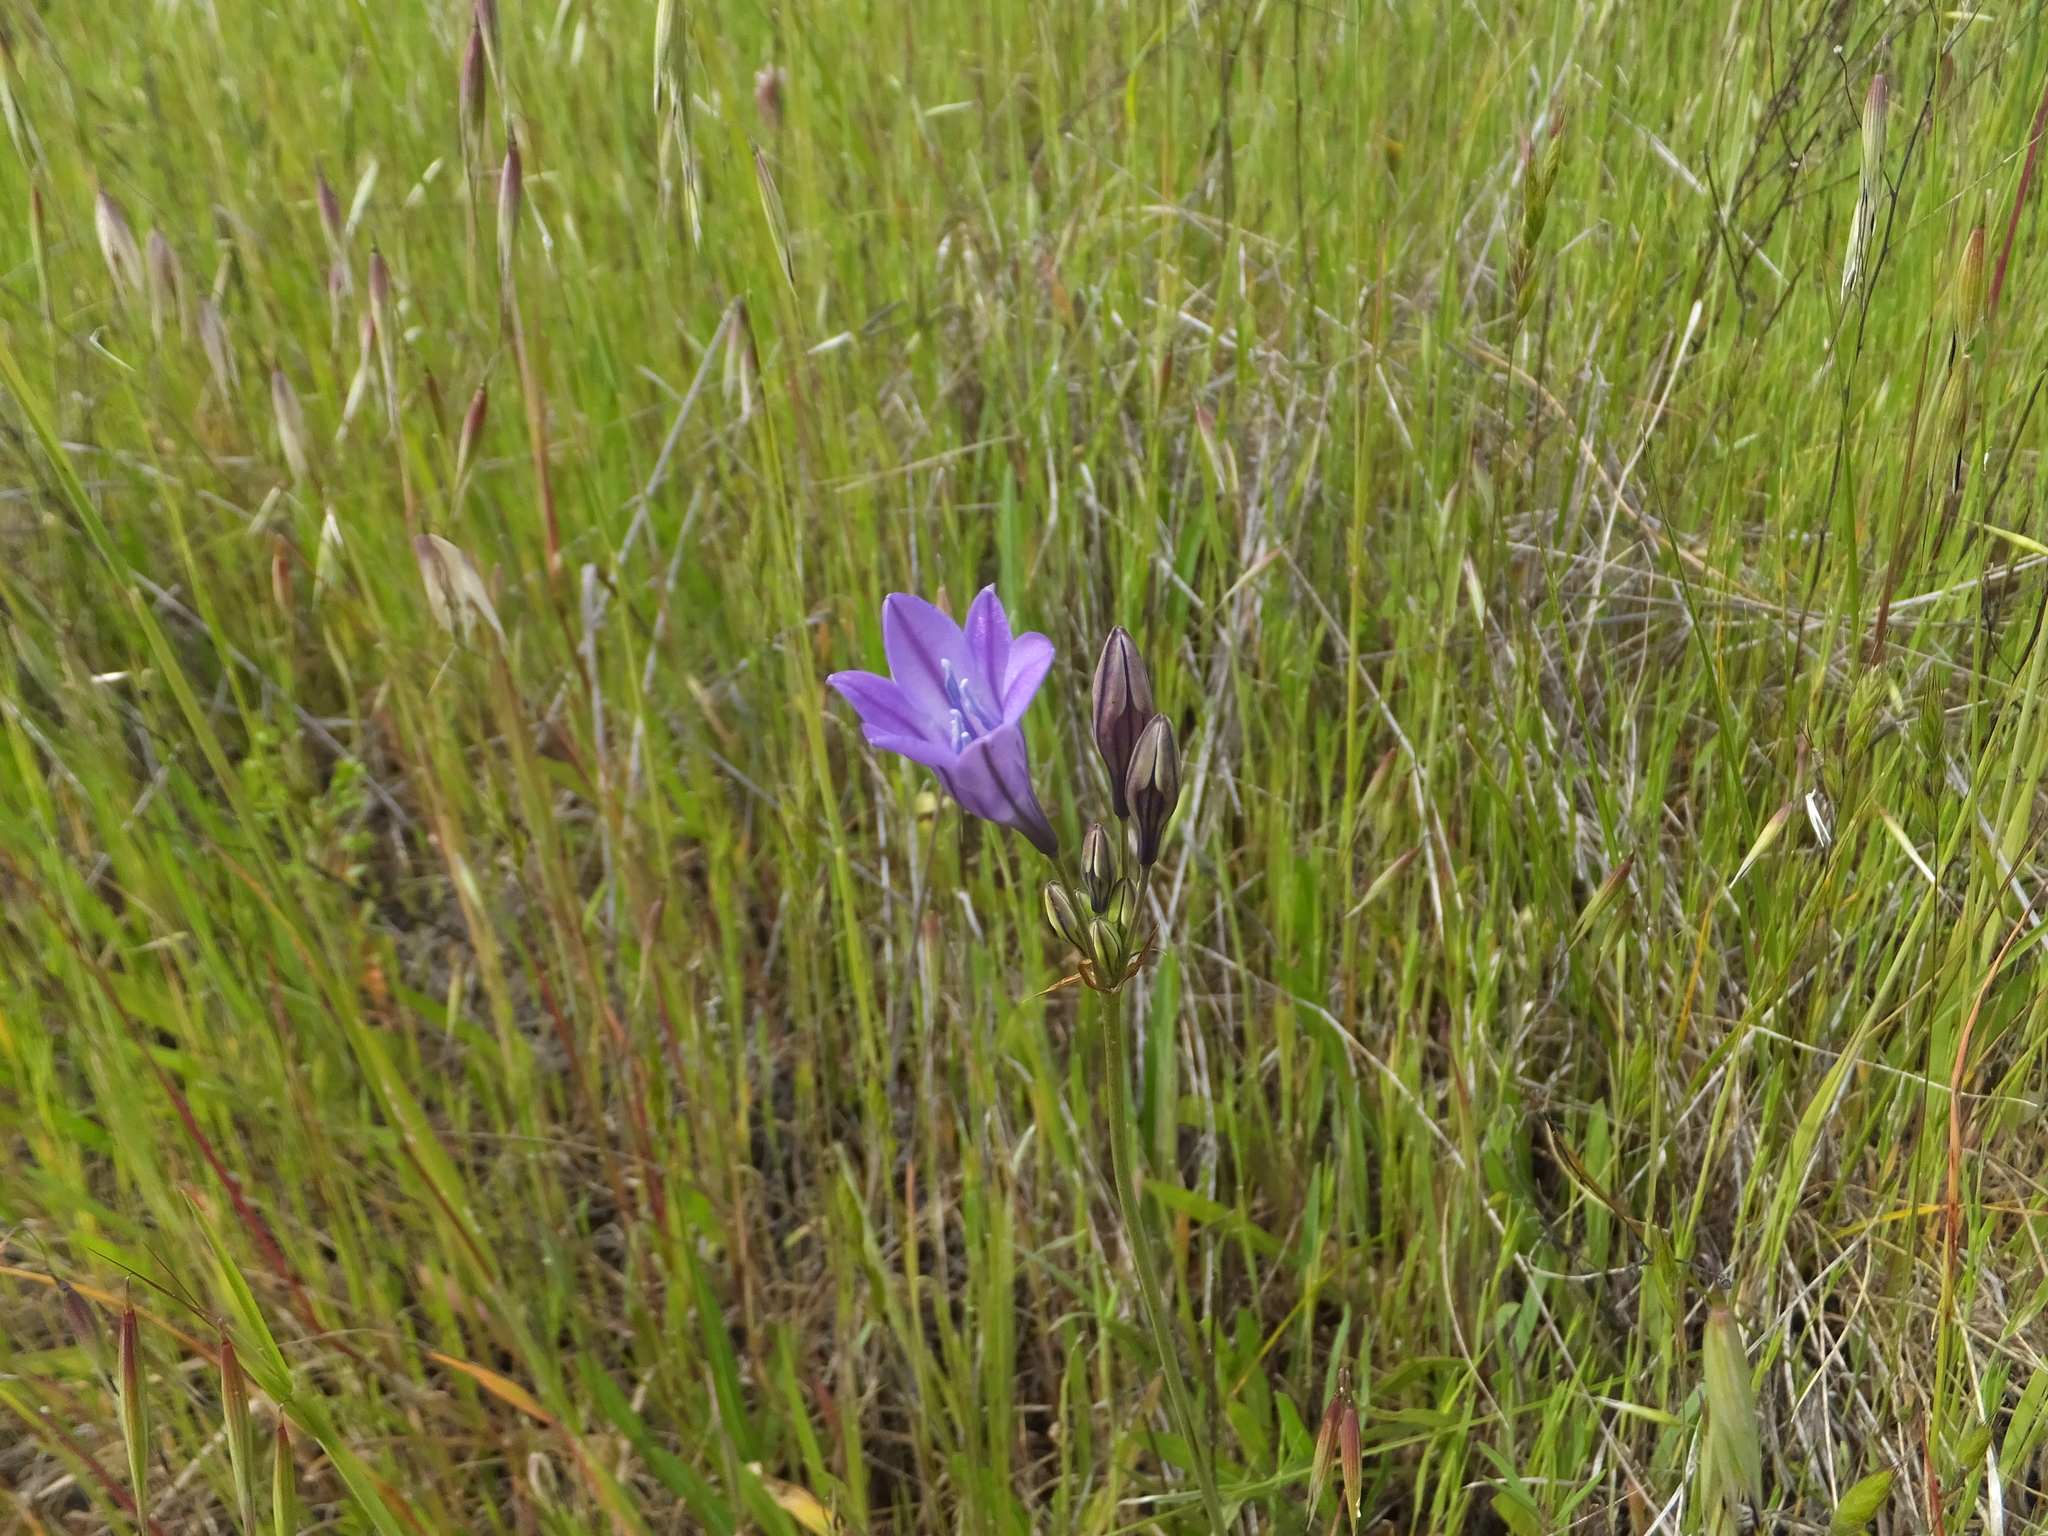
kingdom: Plantae
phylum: Tracheophyta
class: Liliopsida
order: Asparagales
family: Asparagaceae
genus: Triteleia
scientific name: Triteleia laxa
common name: Triplet-lily
